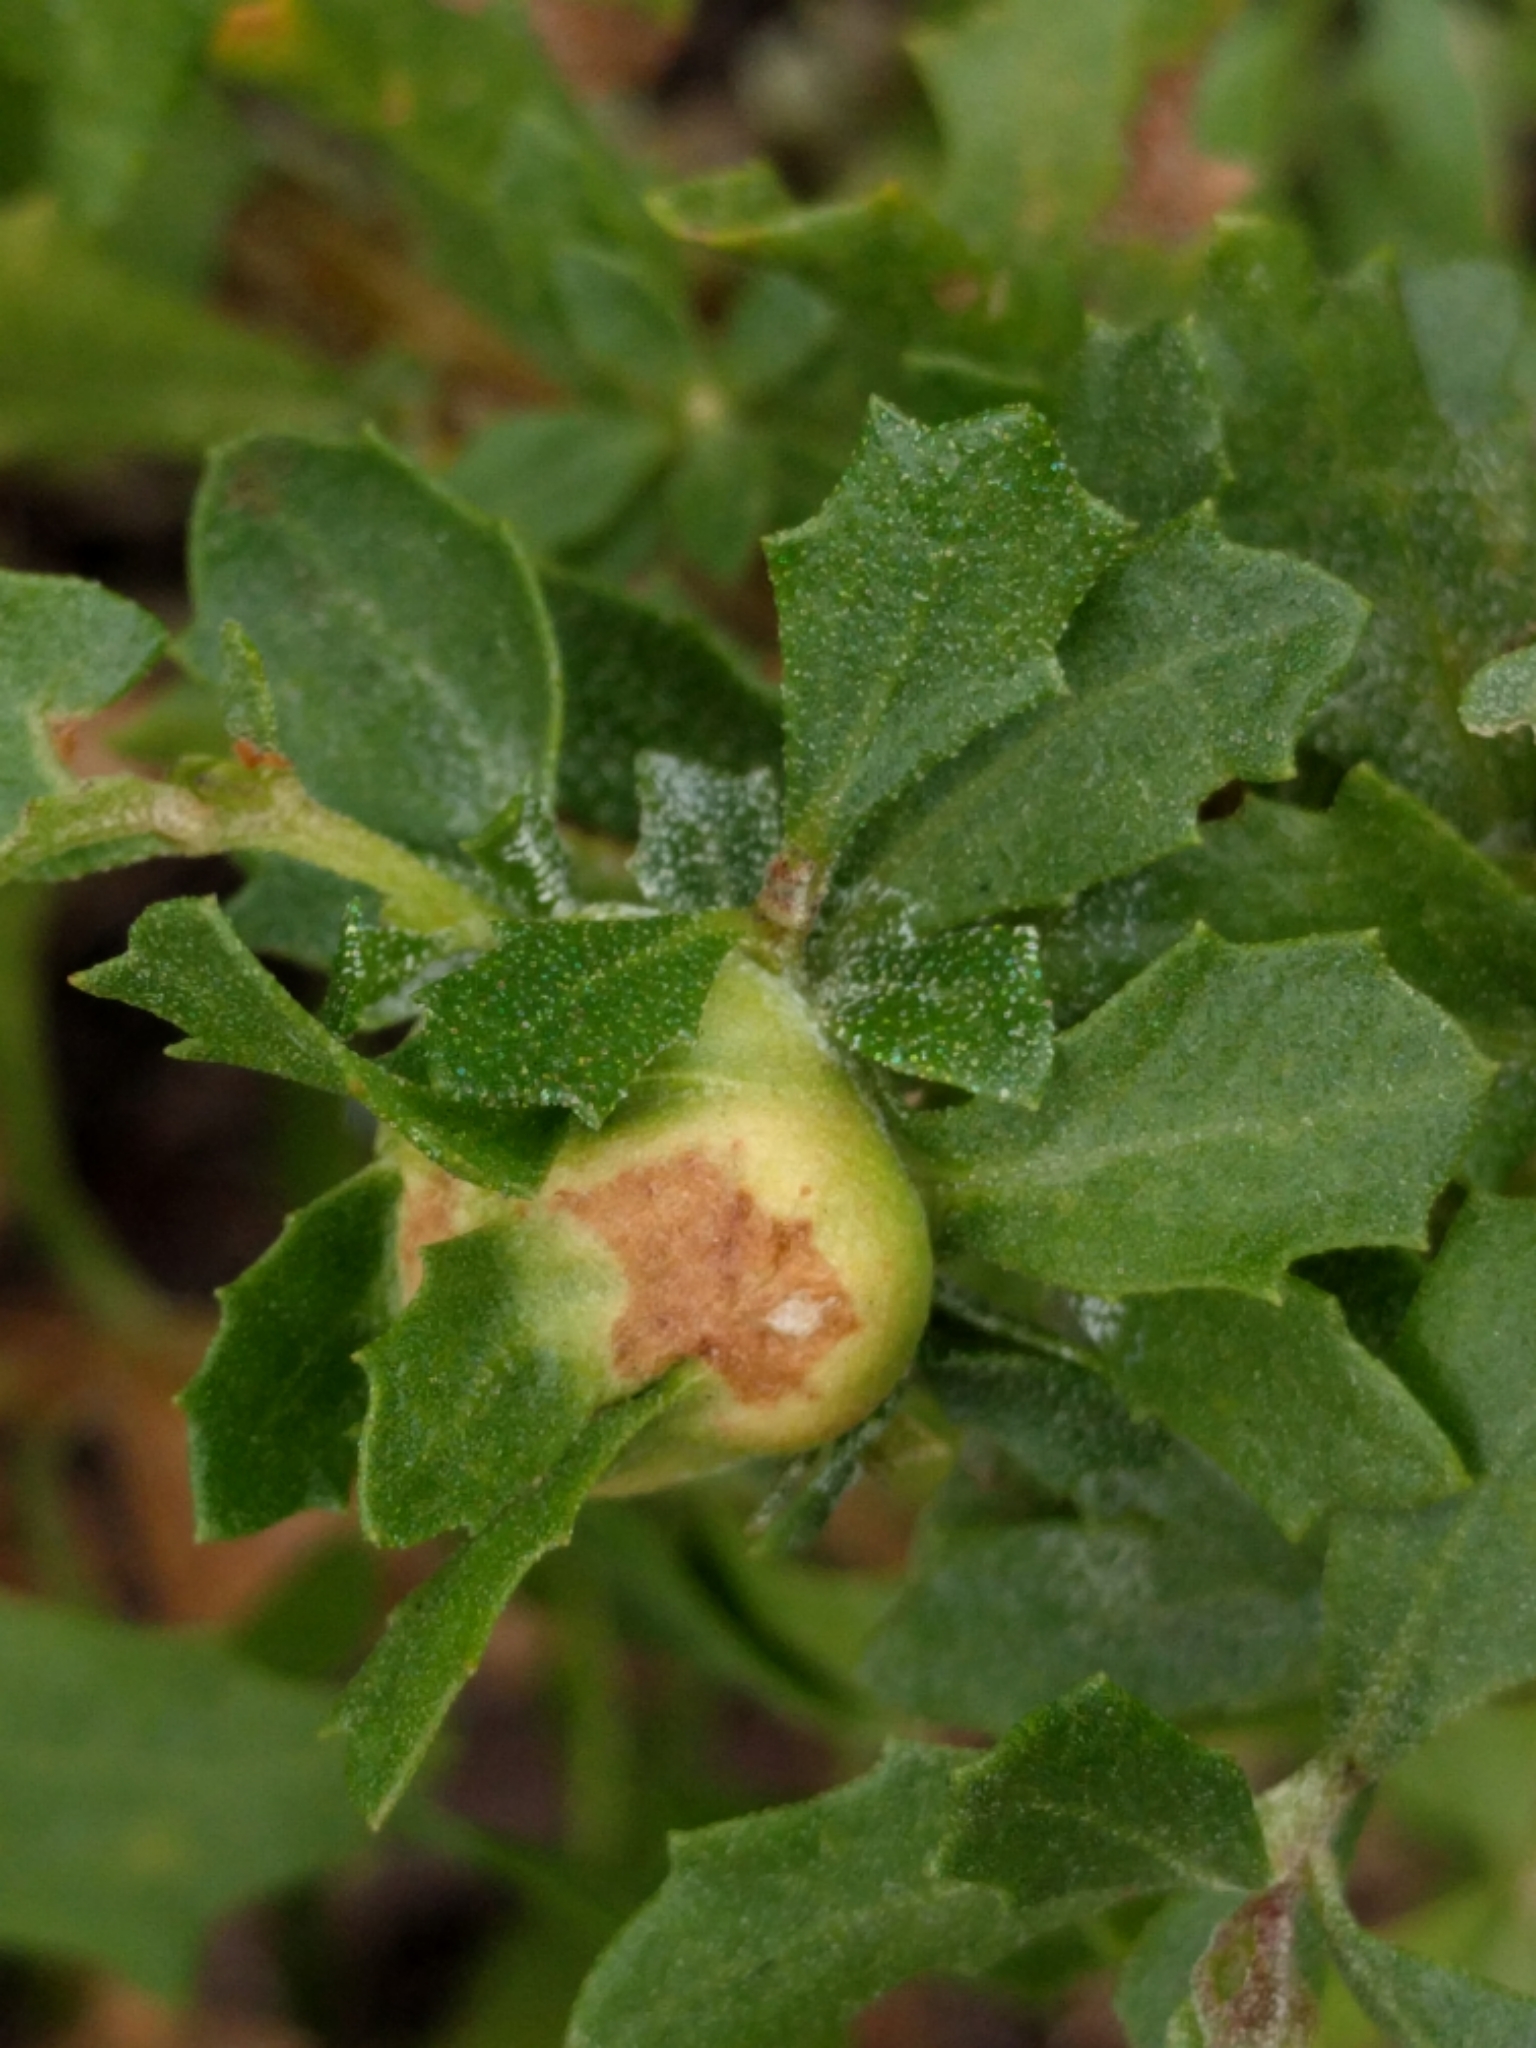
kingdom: Animalia
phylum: Arthropoda
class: Insecta
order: Diptera
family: Cecidomyiidae
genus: Rhopalomyia
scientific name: Rhopalomyia californica
